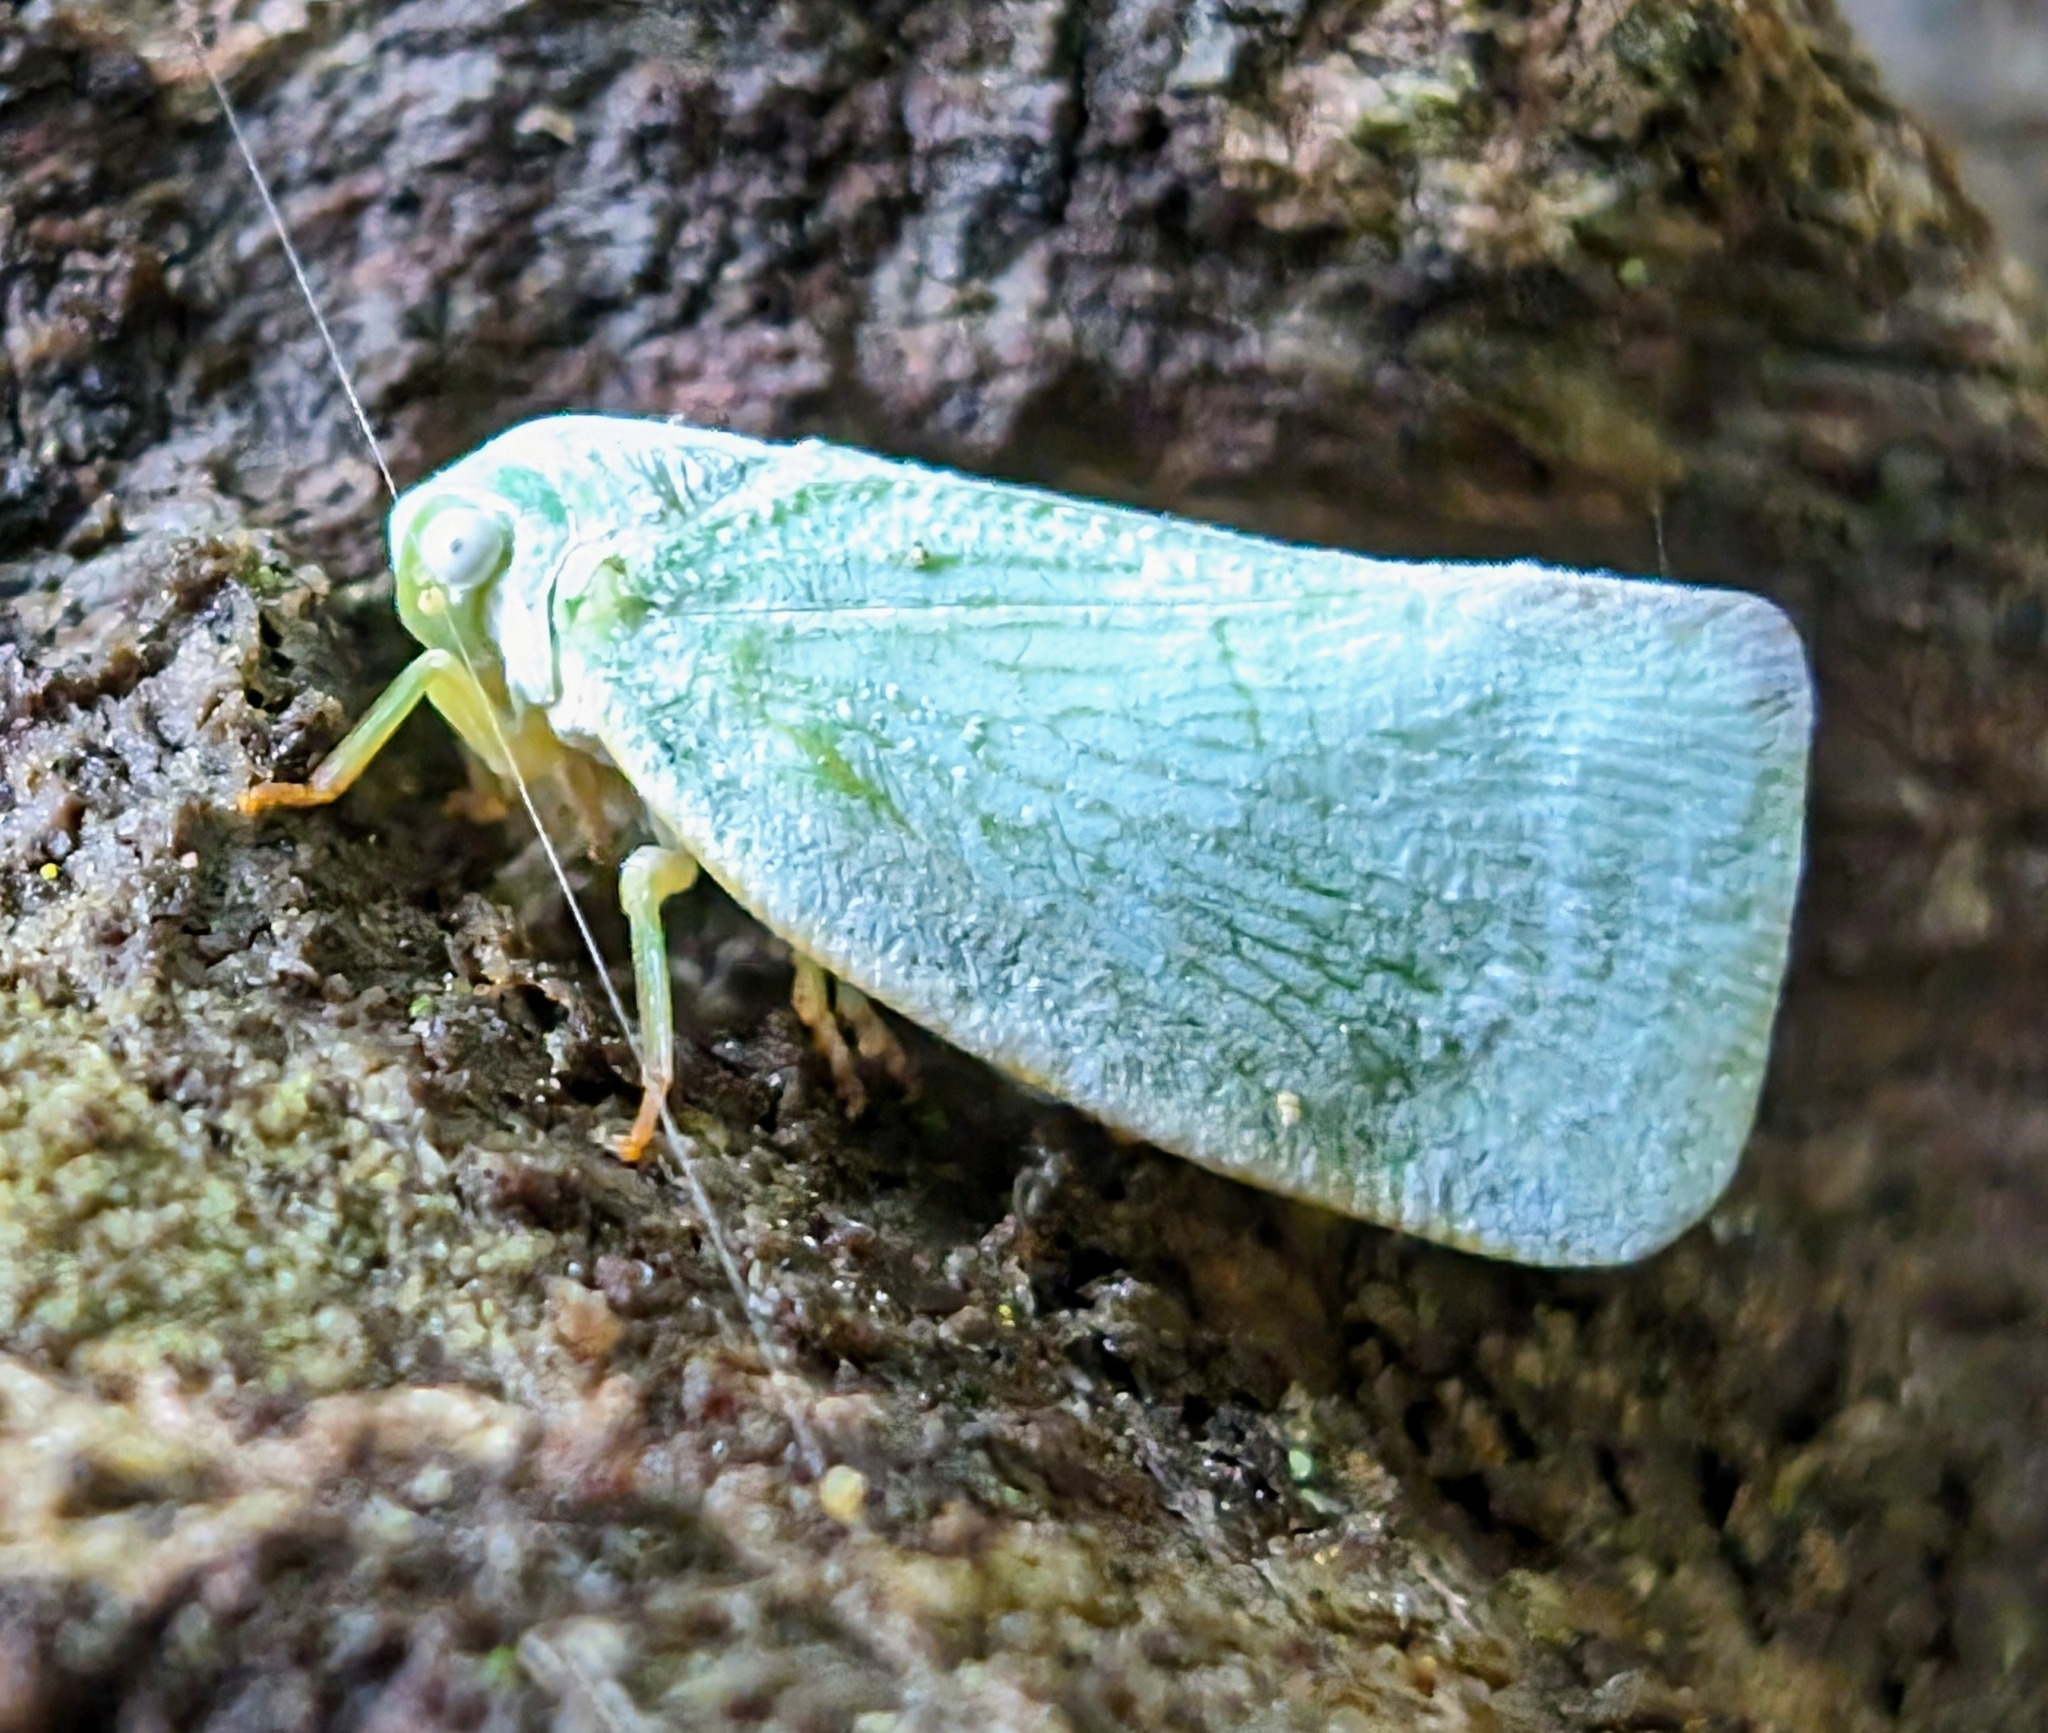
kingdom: Animalia
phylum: Arthropoda
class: Insecta
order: Hemiptera
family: Flatidae
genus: Flatormenis
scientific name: Flatormenis proxima
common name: Northern flatid planthopper
